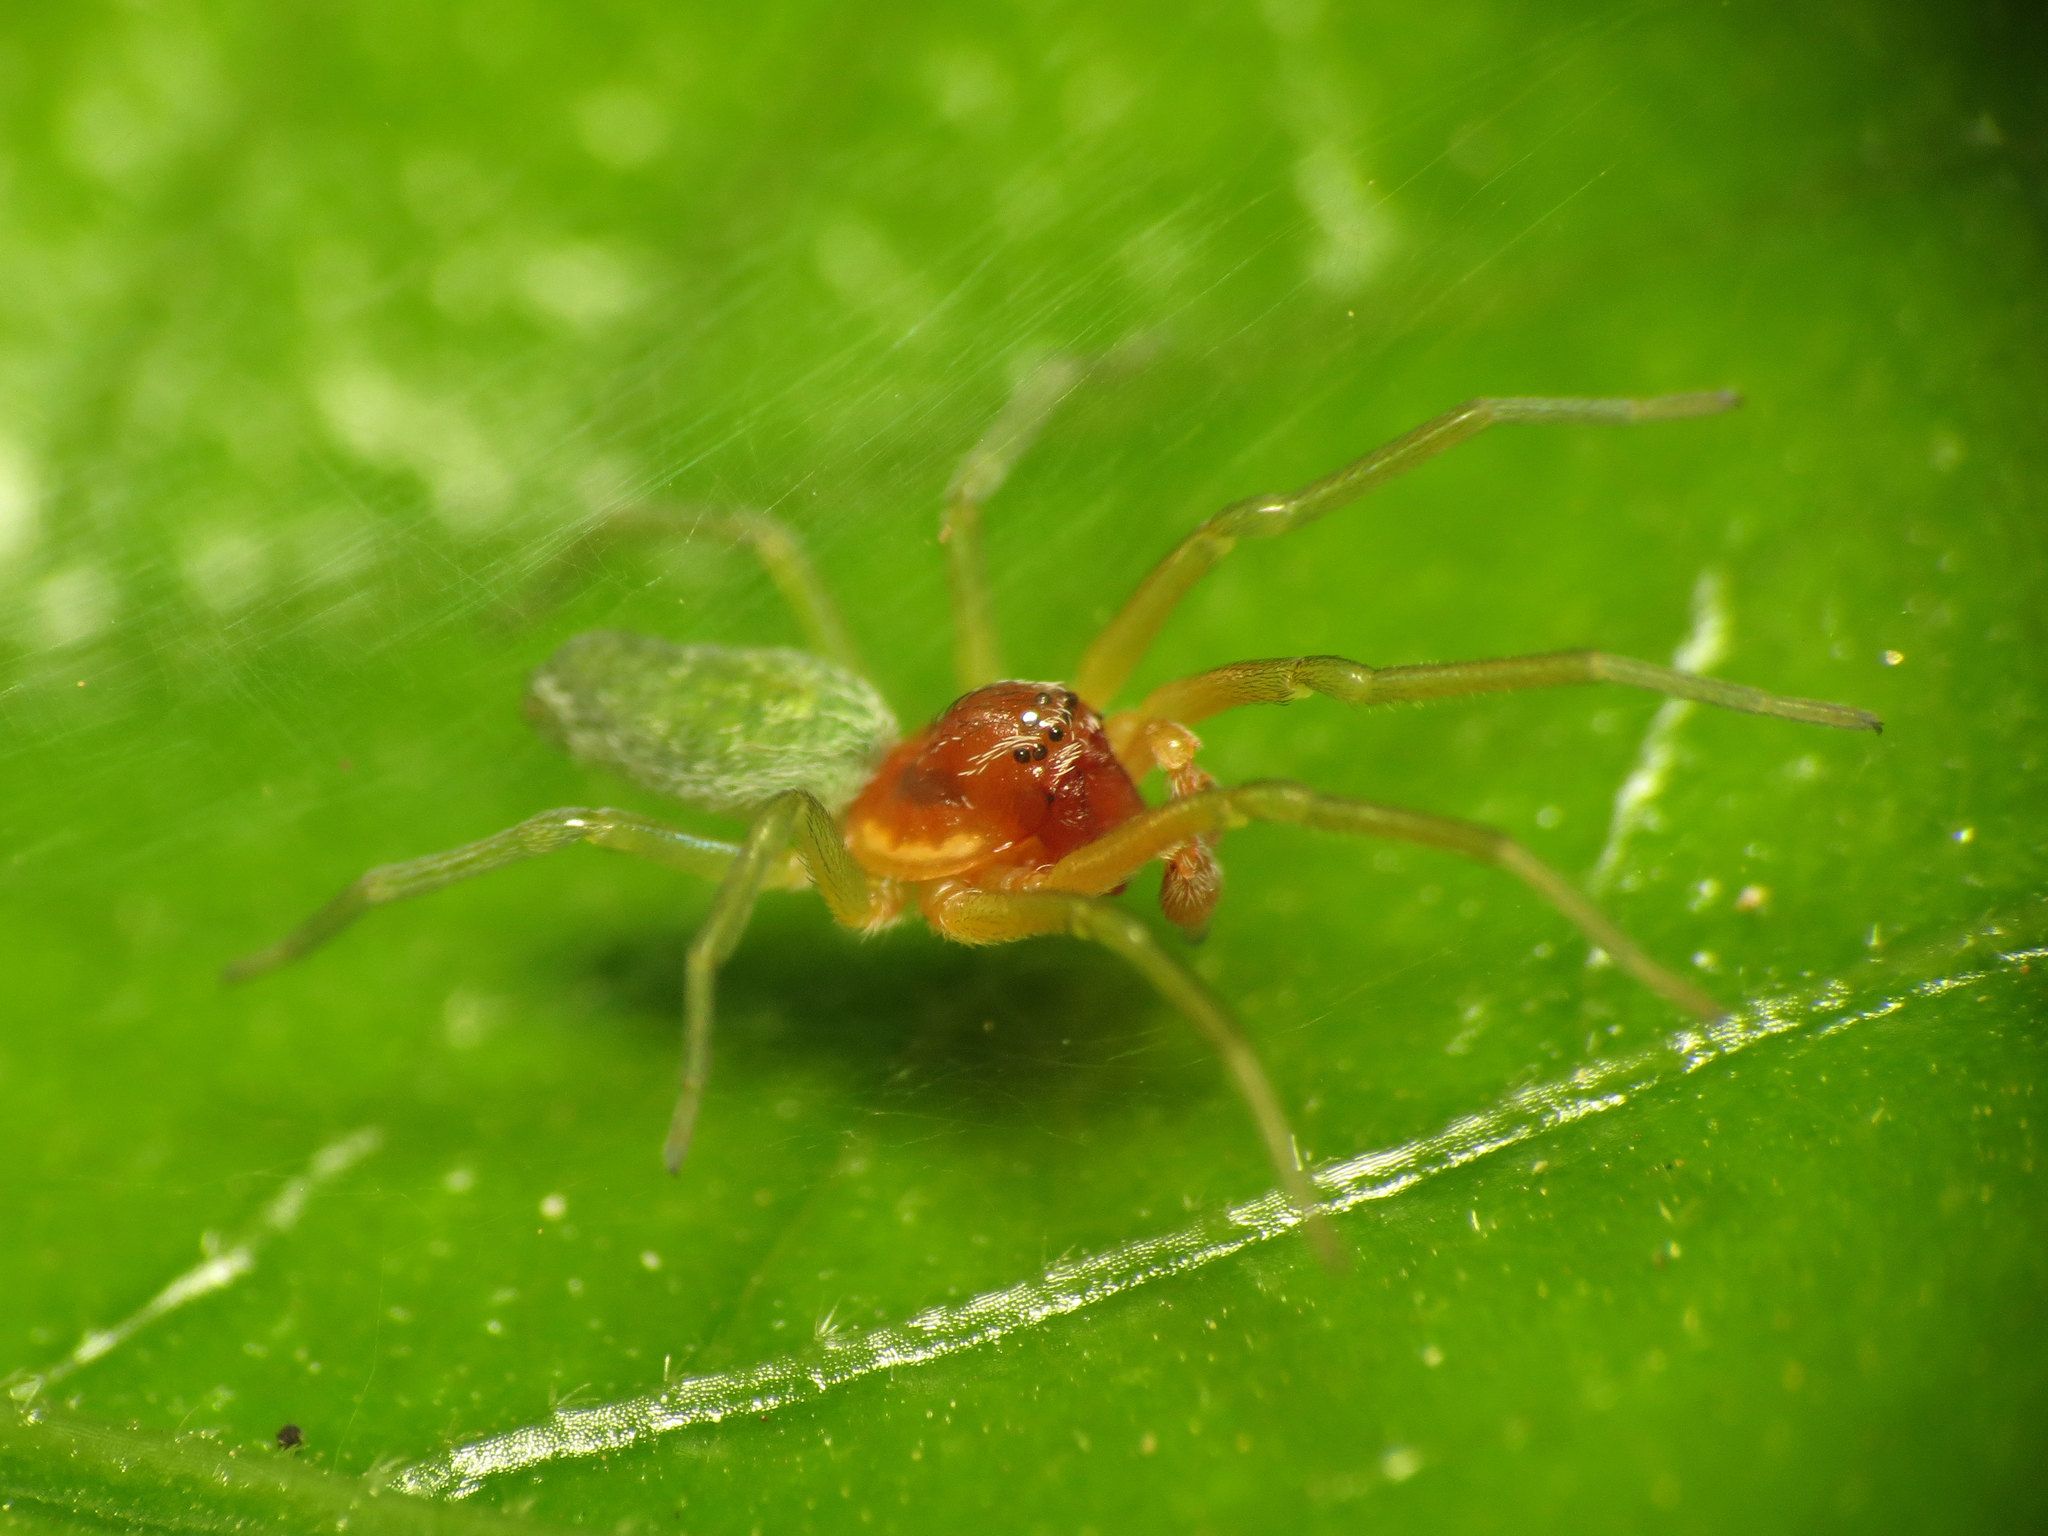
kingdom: Animalia
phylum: Arthropoda
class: Arachnida
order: Araneae
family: Dictynidae
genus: Nigma
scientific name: Nigma walckenaeri
